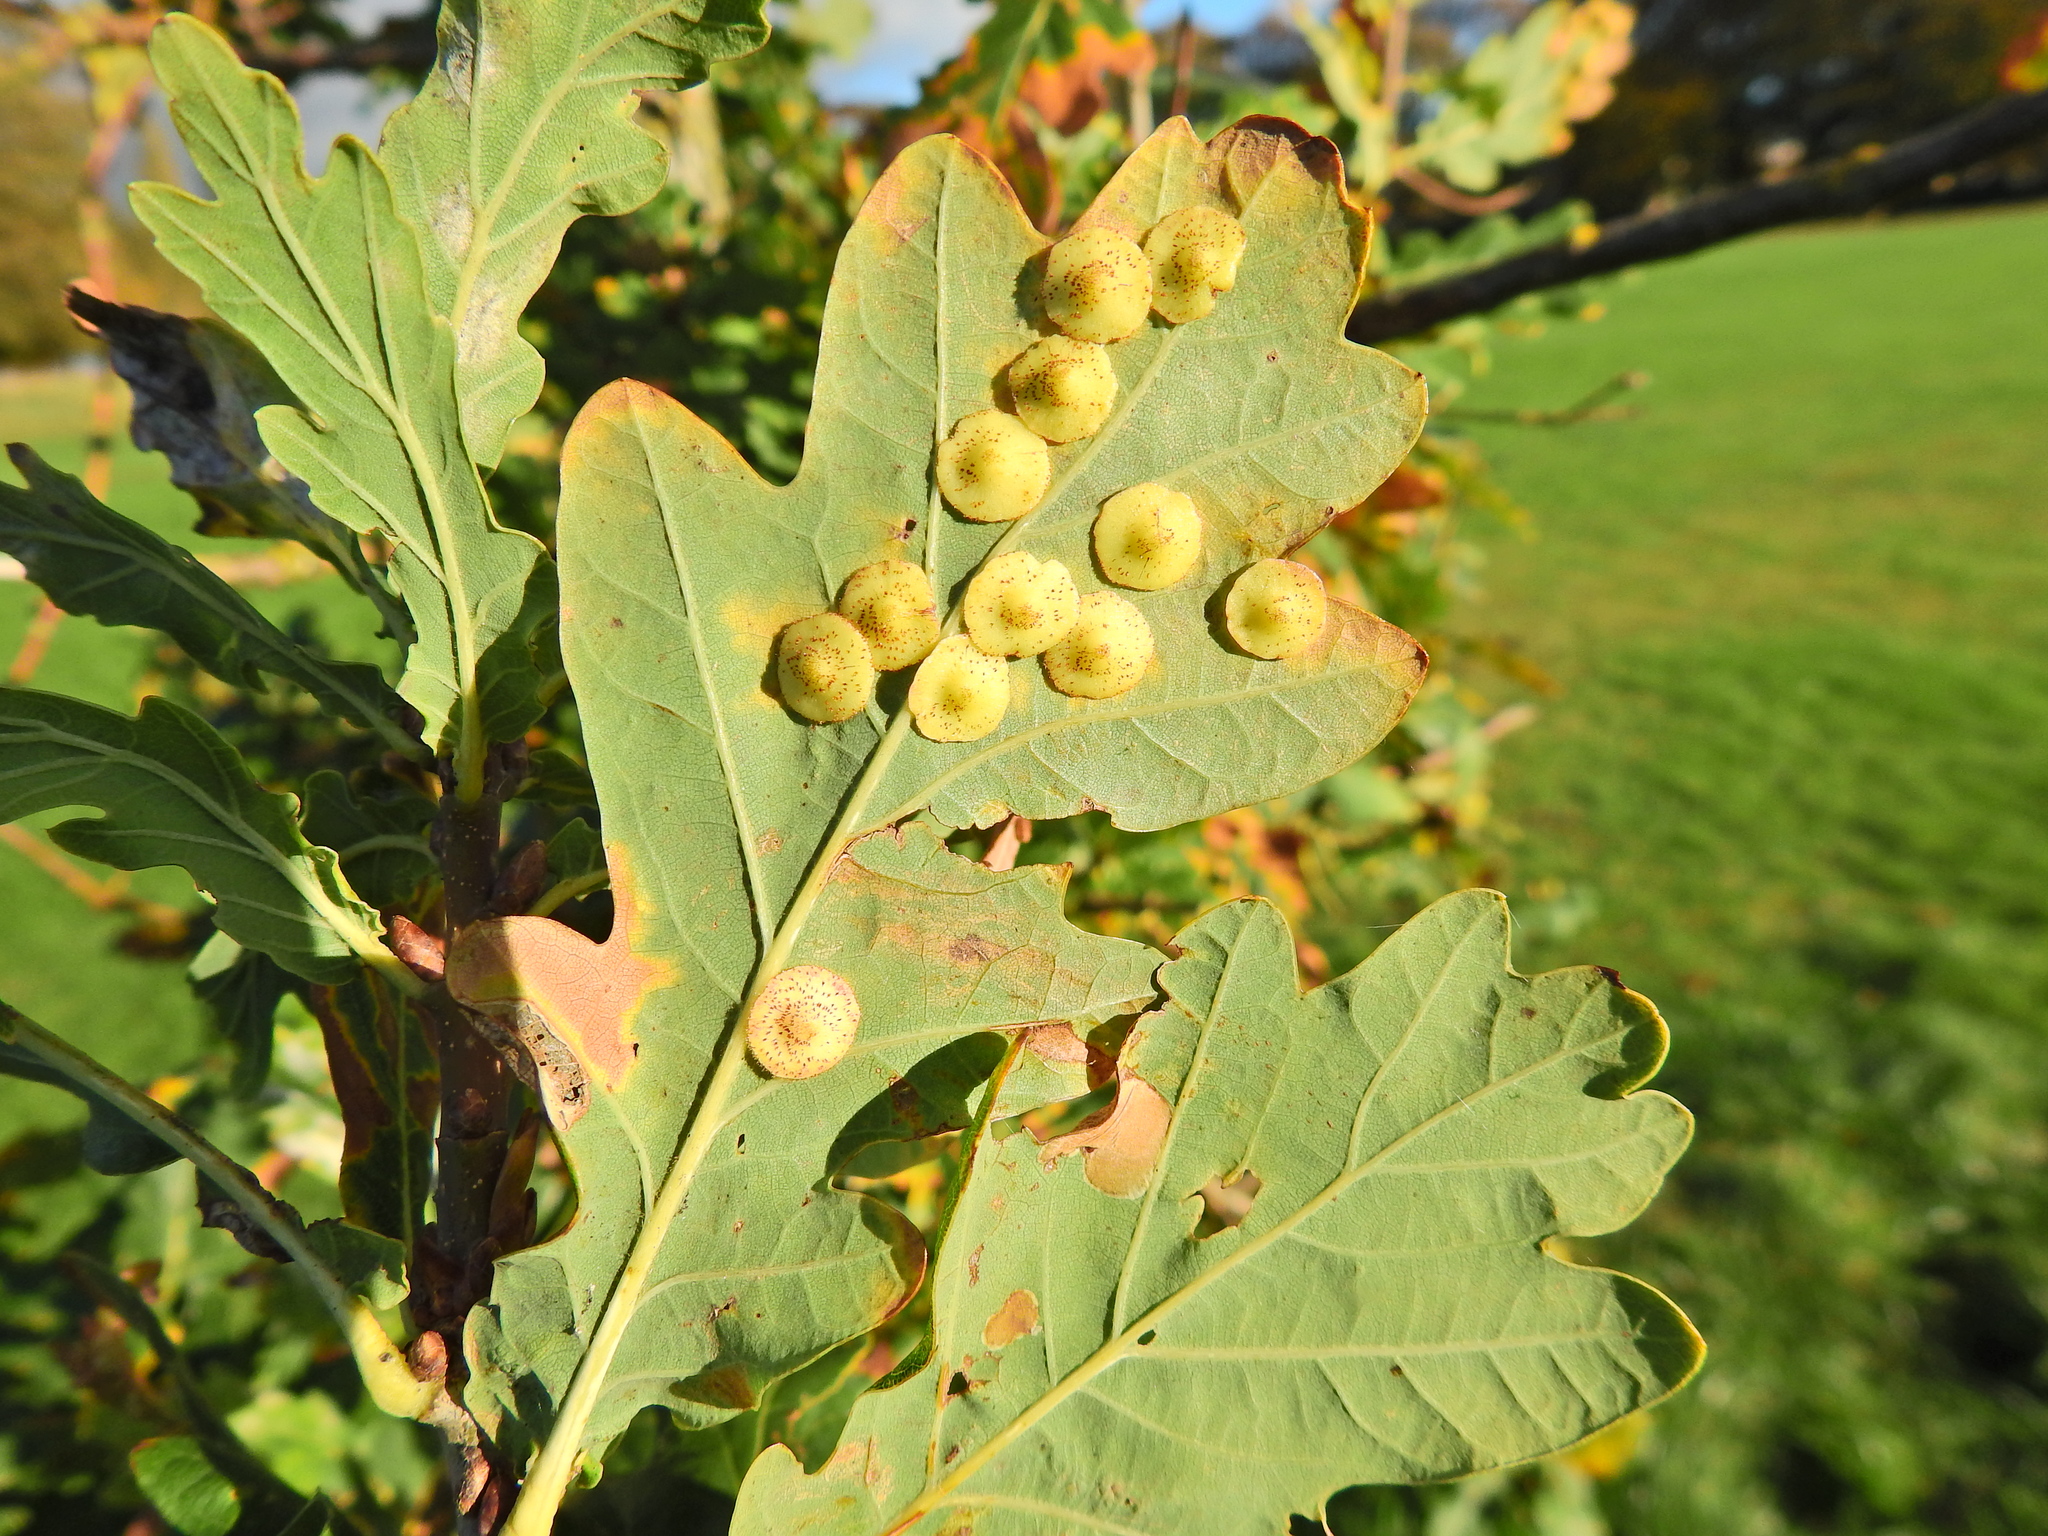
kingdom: Animalia
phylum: Arthropoda
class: Insecta
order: Hymenoptera
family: Cynipidae
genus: Neuroterus
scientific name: Neuroterus quercusbaccarum
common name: Common spangle gall
